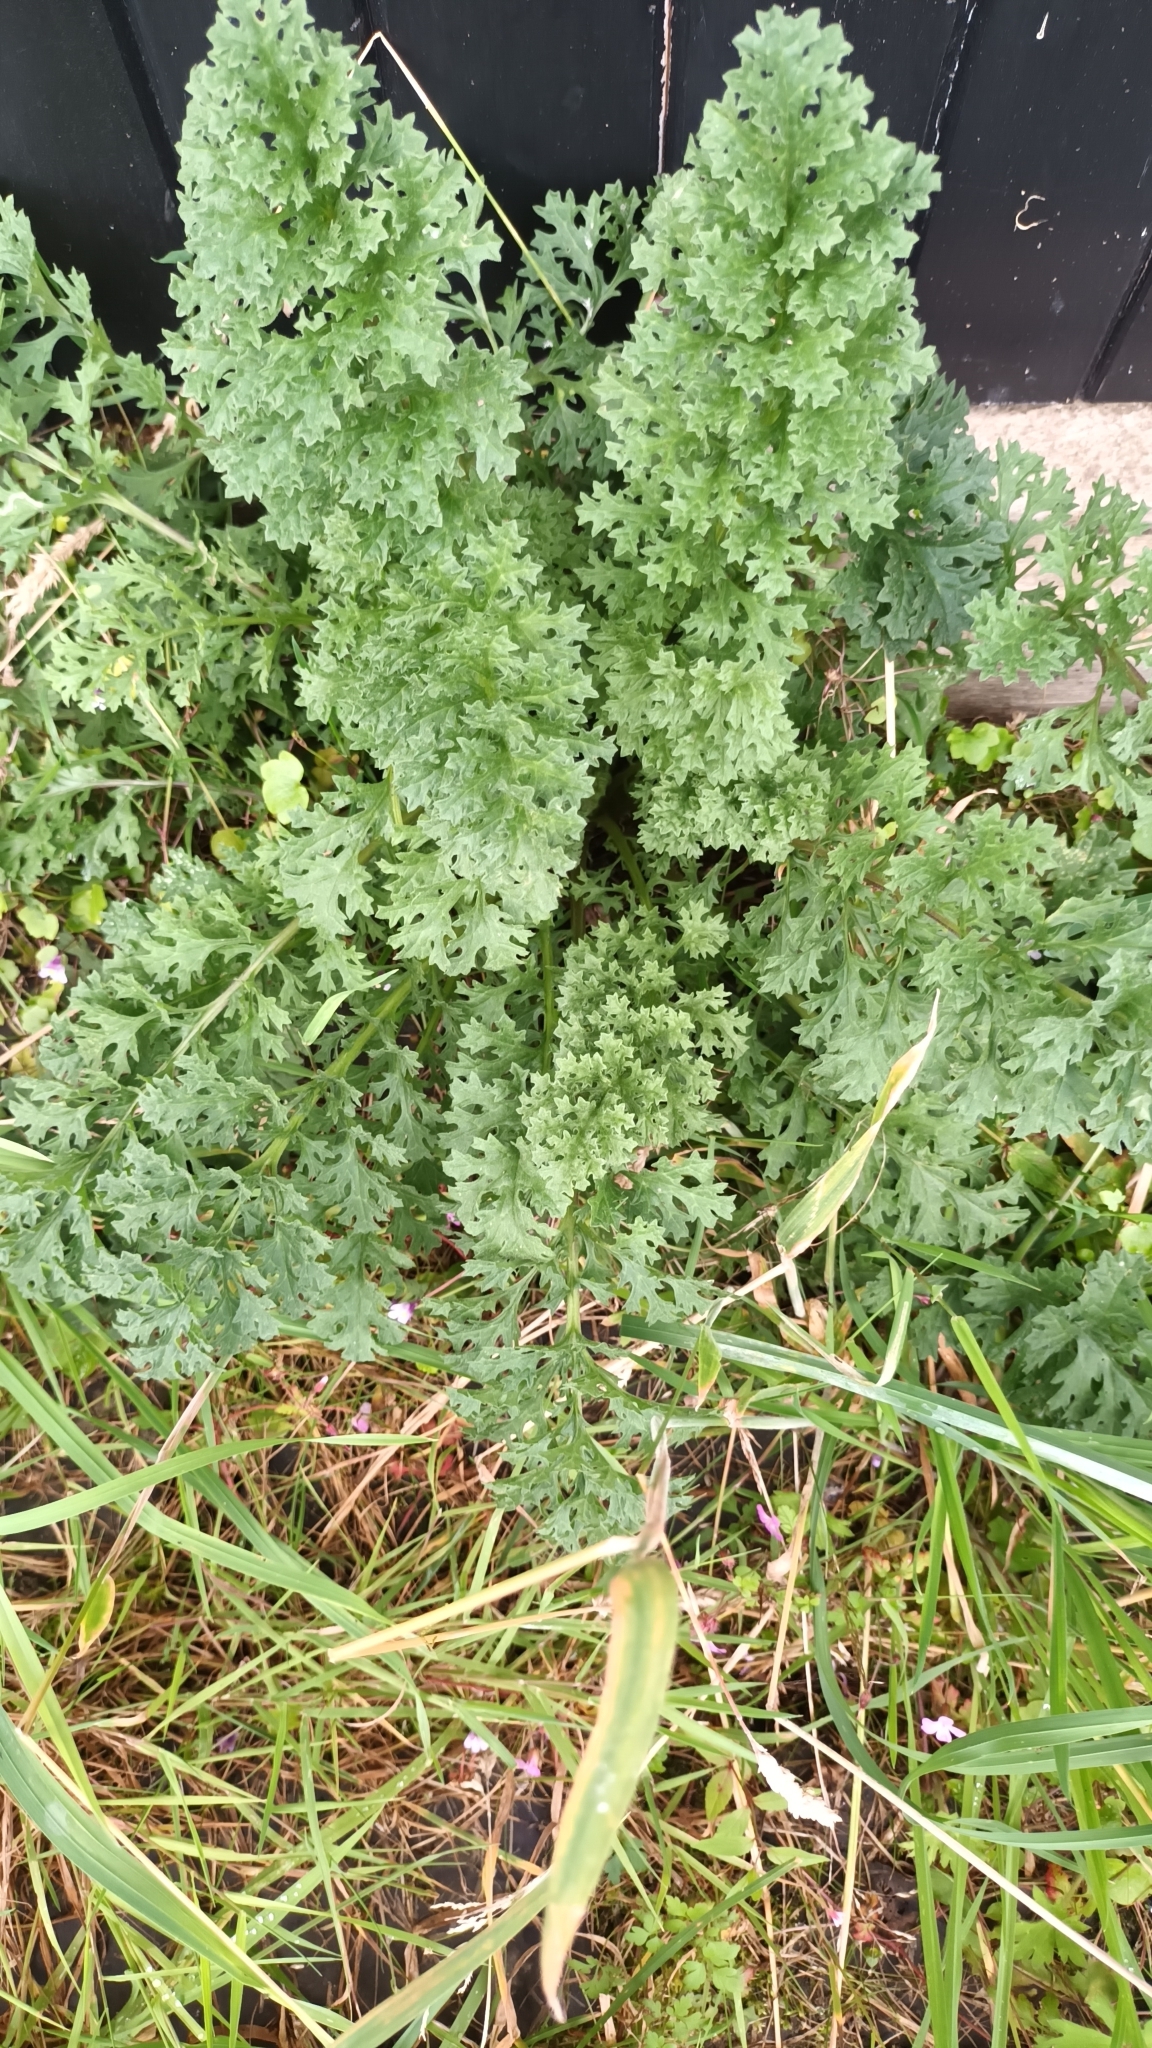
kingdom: Plantae
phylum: Tracheophyta
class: Magnoliopsida
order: Asterales
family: Asteraceae
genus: Jacobaea
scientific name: Jacobaea vulgaris
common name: Stinking willie
